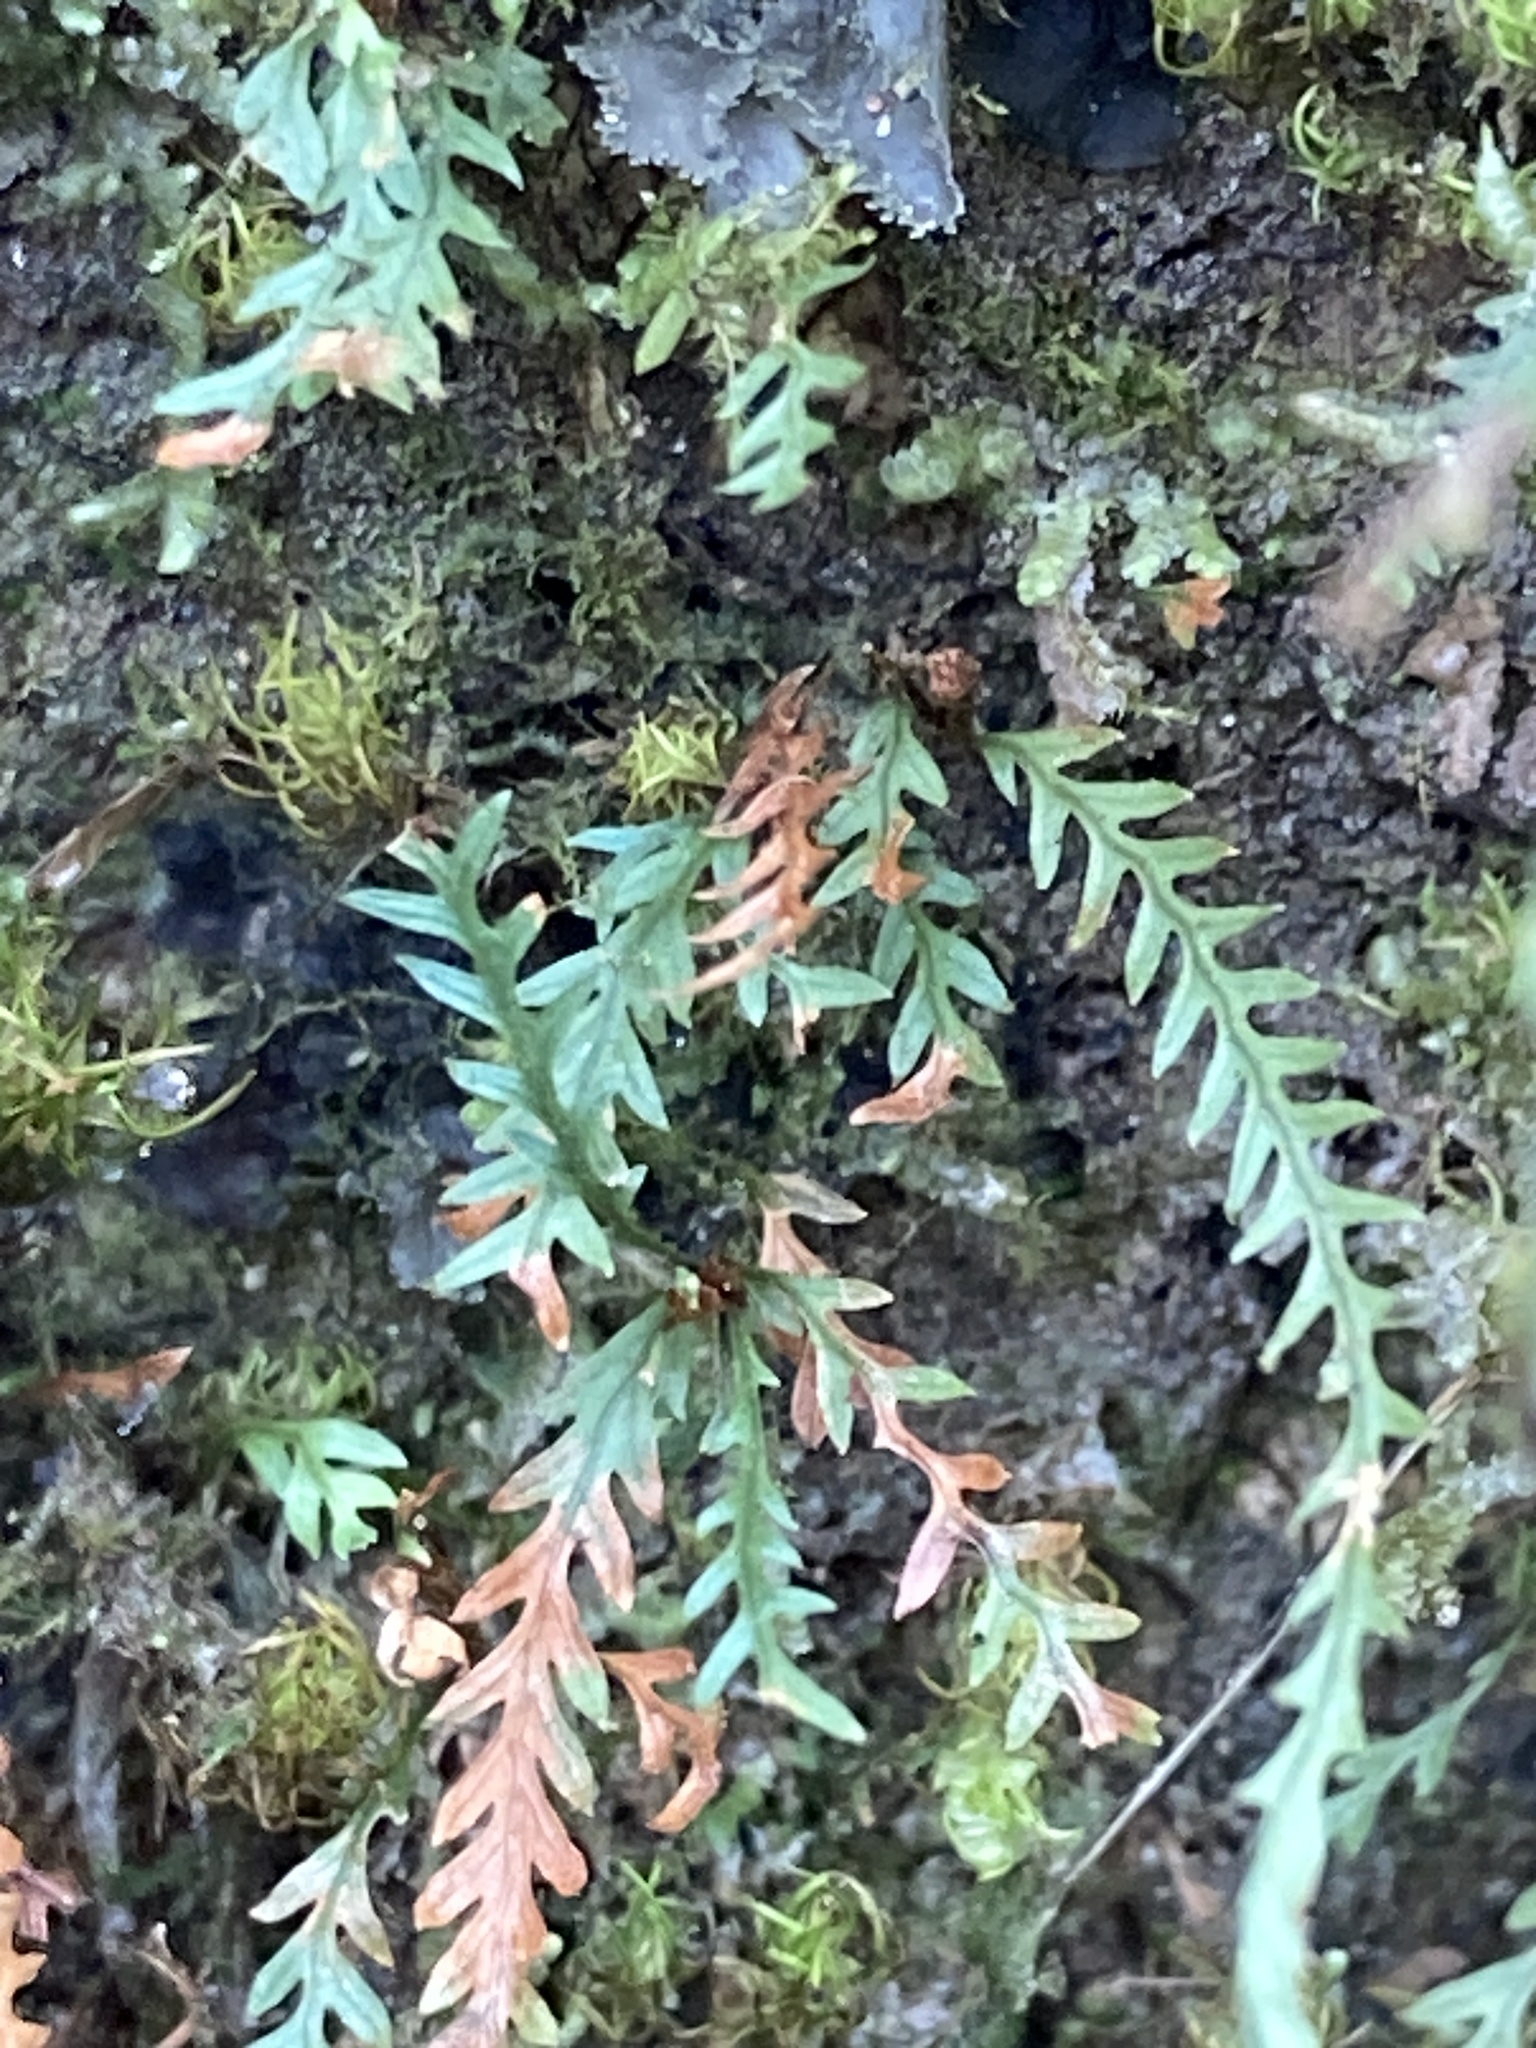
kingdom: Plantae
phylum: Tracheophyta
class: Polypodiopsida
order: Polypodiales
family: Polypodiaceae
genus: Cochlidium
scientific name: Cochlidium serrulatum
